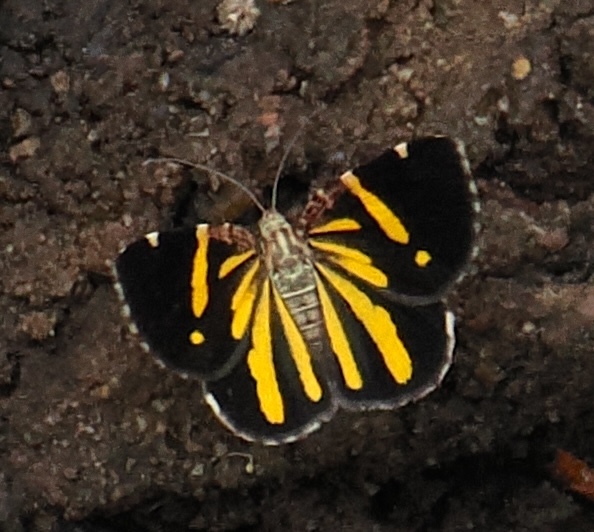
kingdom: Animalia
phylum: Arthropoda
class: Insecta
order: Lepidoptera
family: Geometridae
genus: Heterusia
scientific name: Heterusia quadruplicaria
